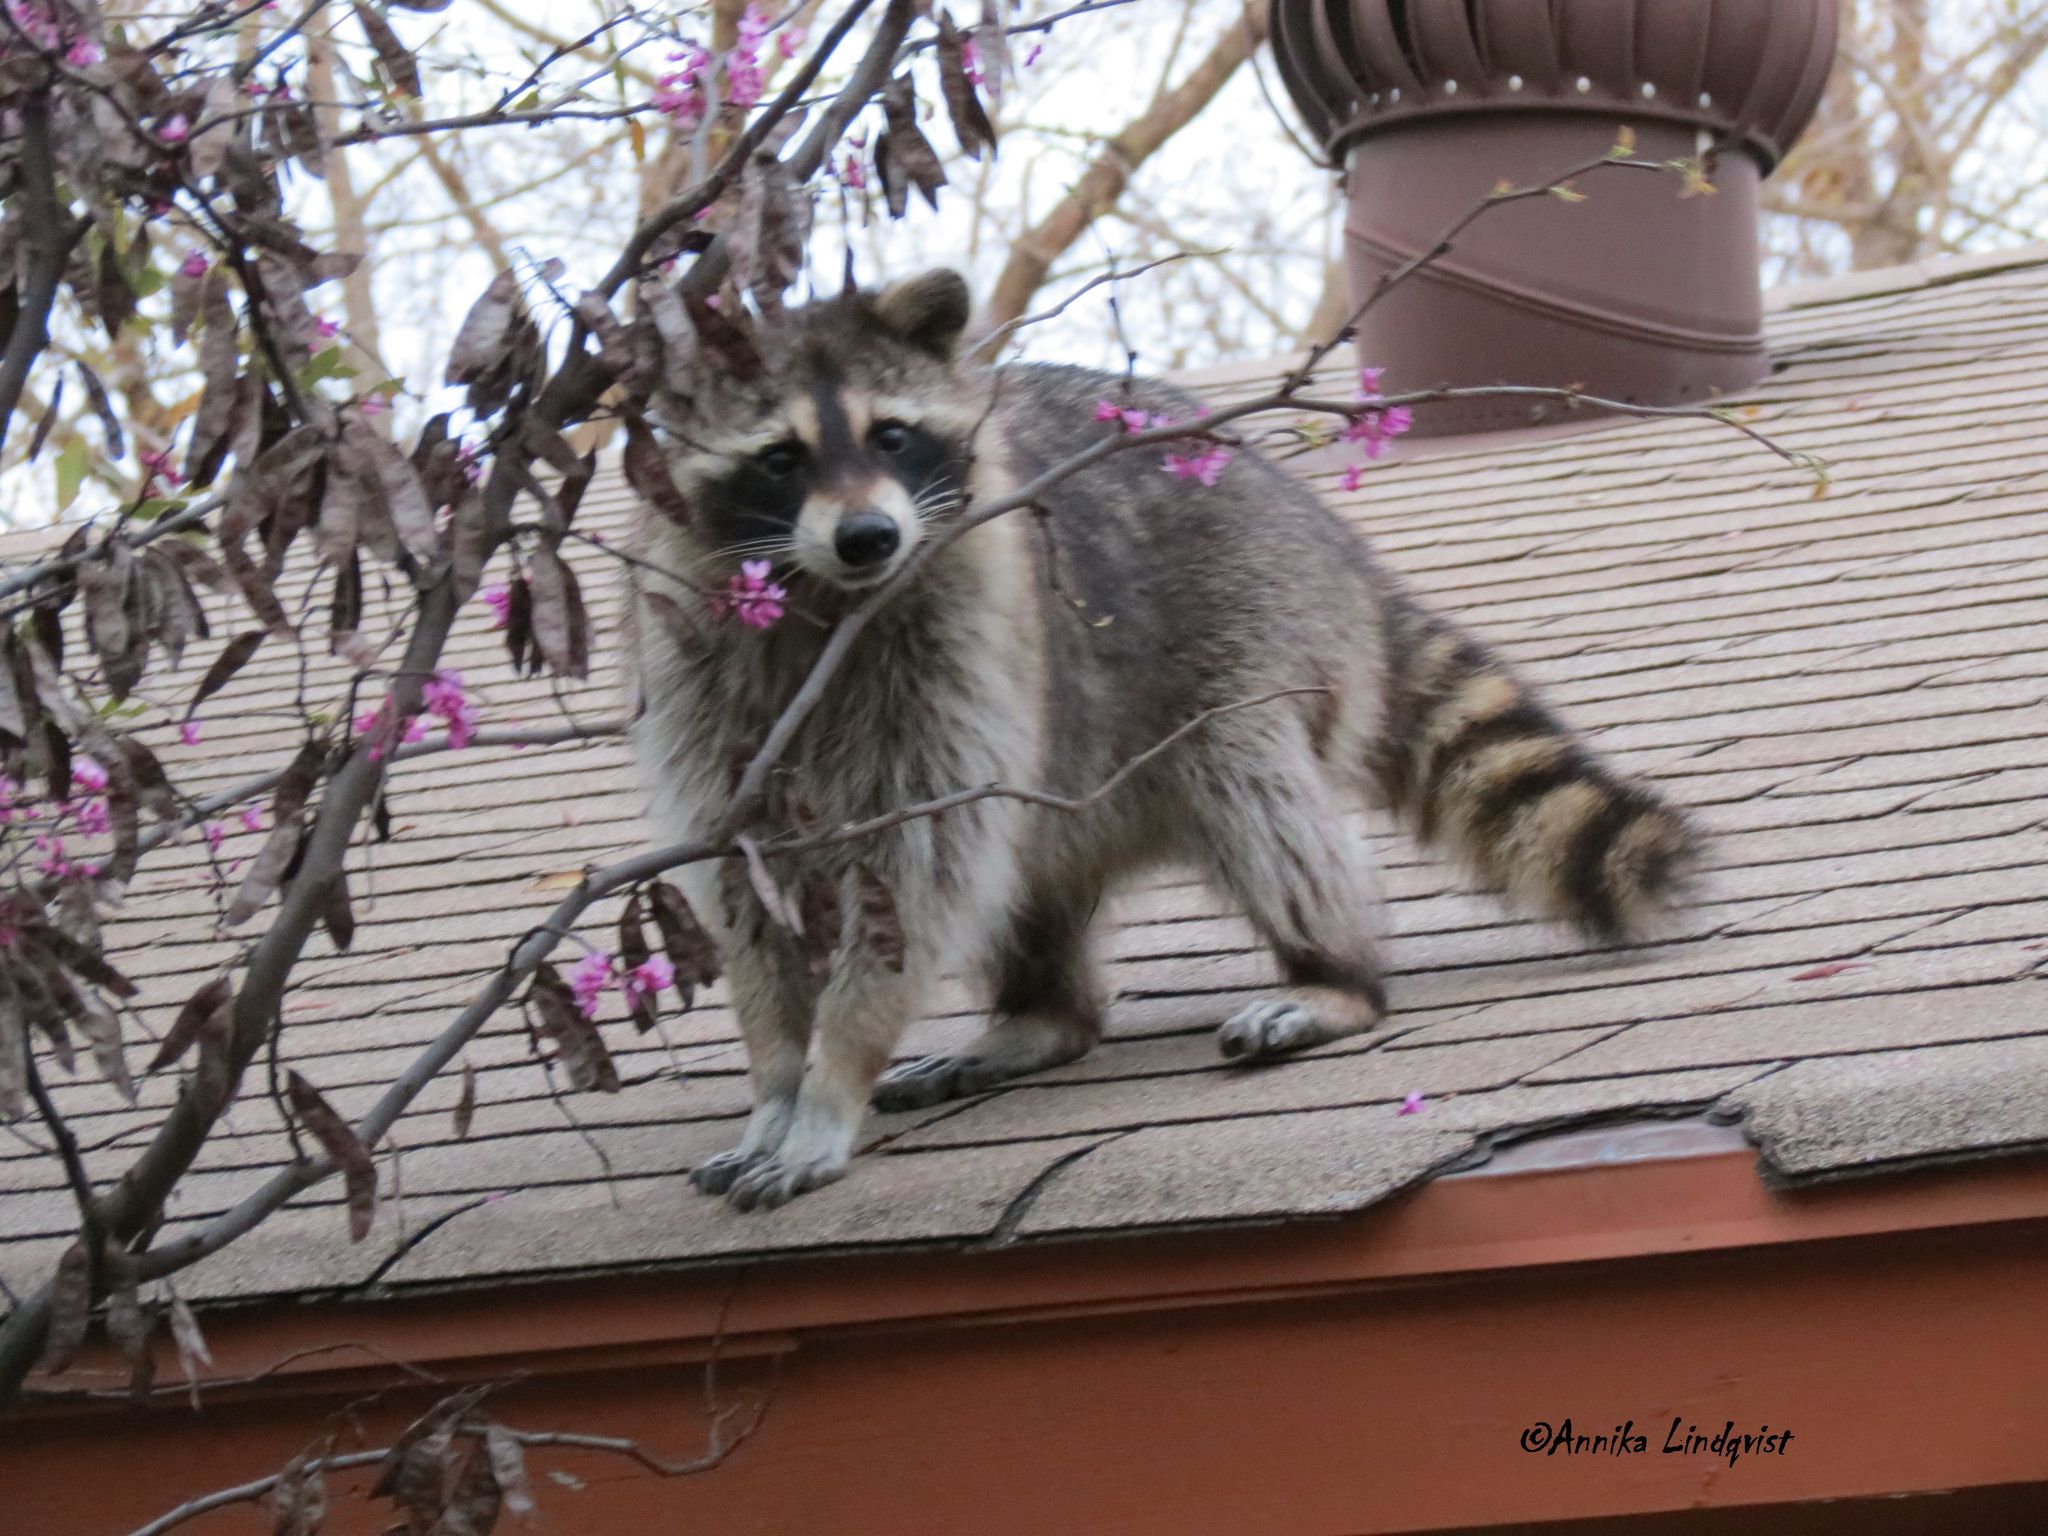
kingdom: Animalia
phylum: Chordata
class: Mammalia
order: Carnivora
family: Procyonidae
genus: Procyon
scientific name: Procyon lotor
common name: Raccoon
